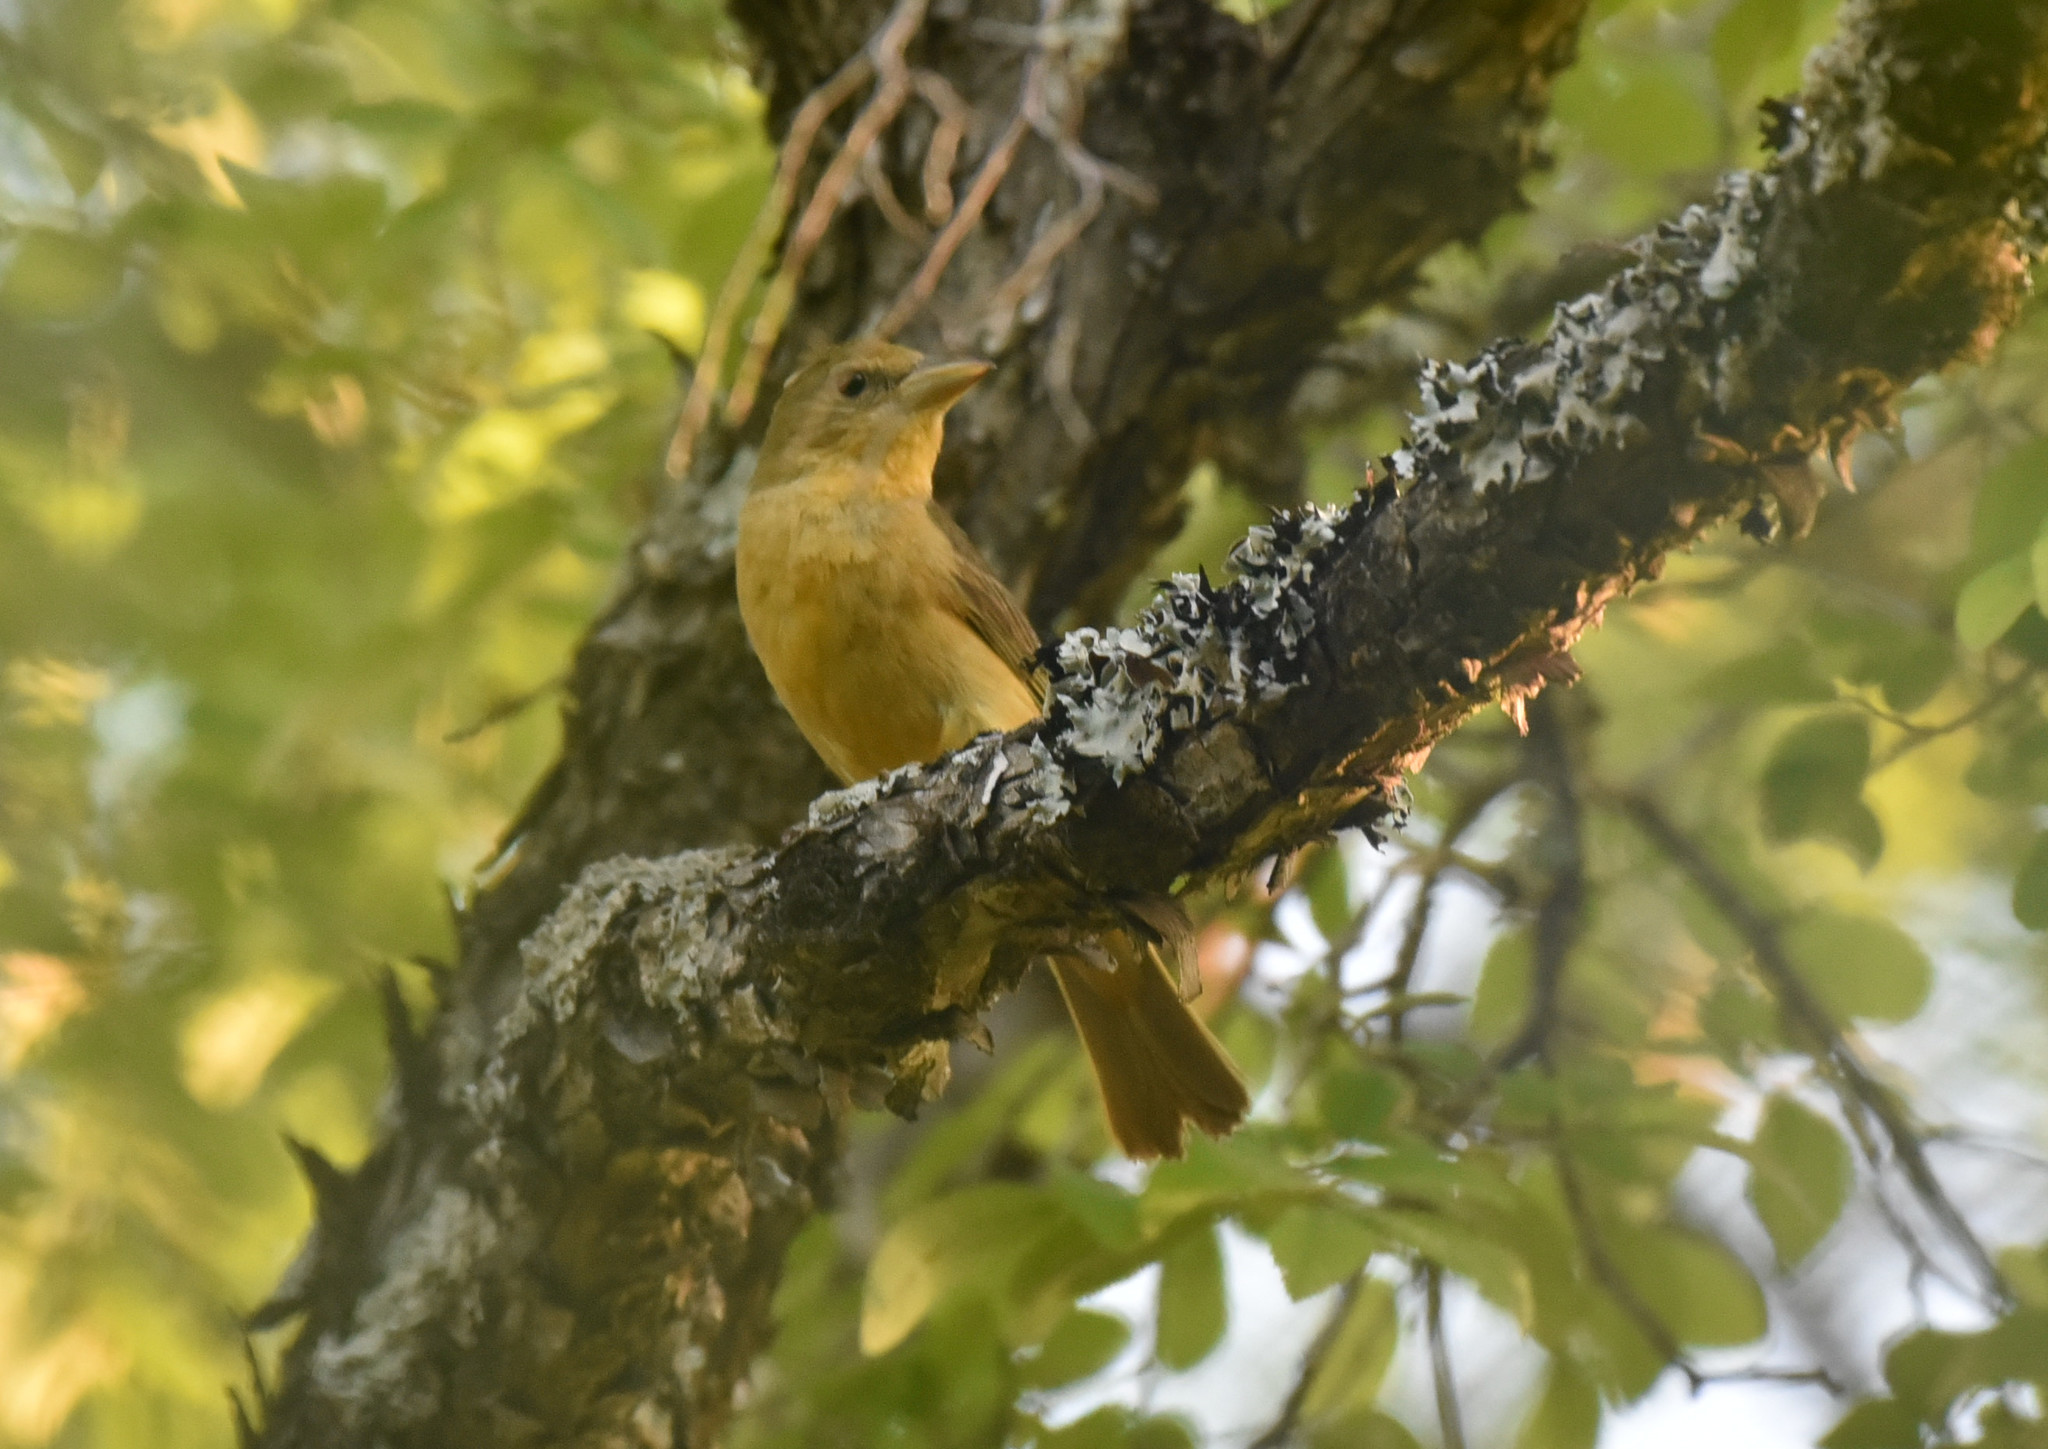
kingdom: Animalia
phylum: Chordata
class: Aves
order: Passeriformes
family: Cardinalidae
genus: Piranga
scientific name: Piranga rubra
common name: Summer tanager
